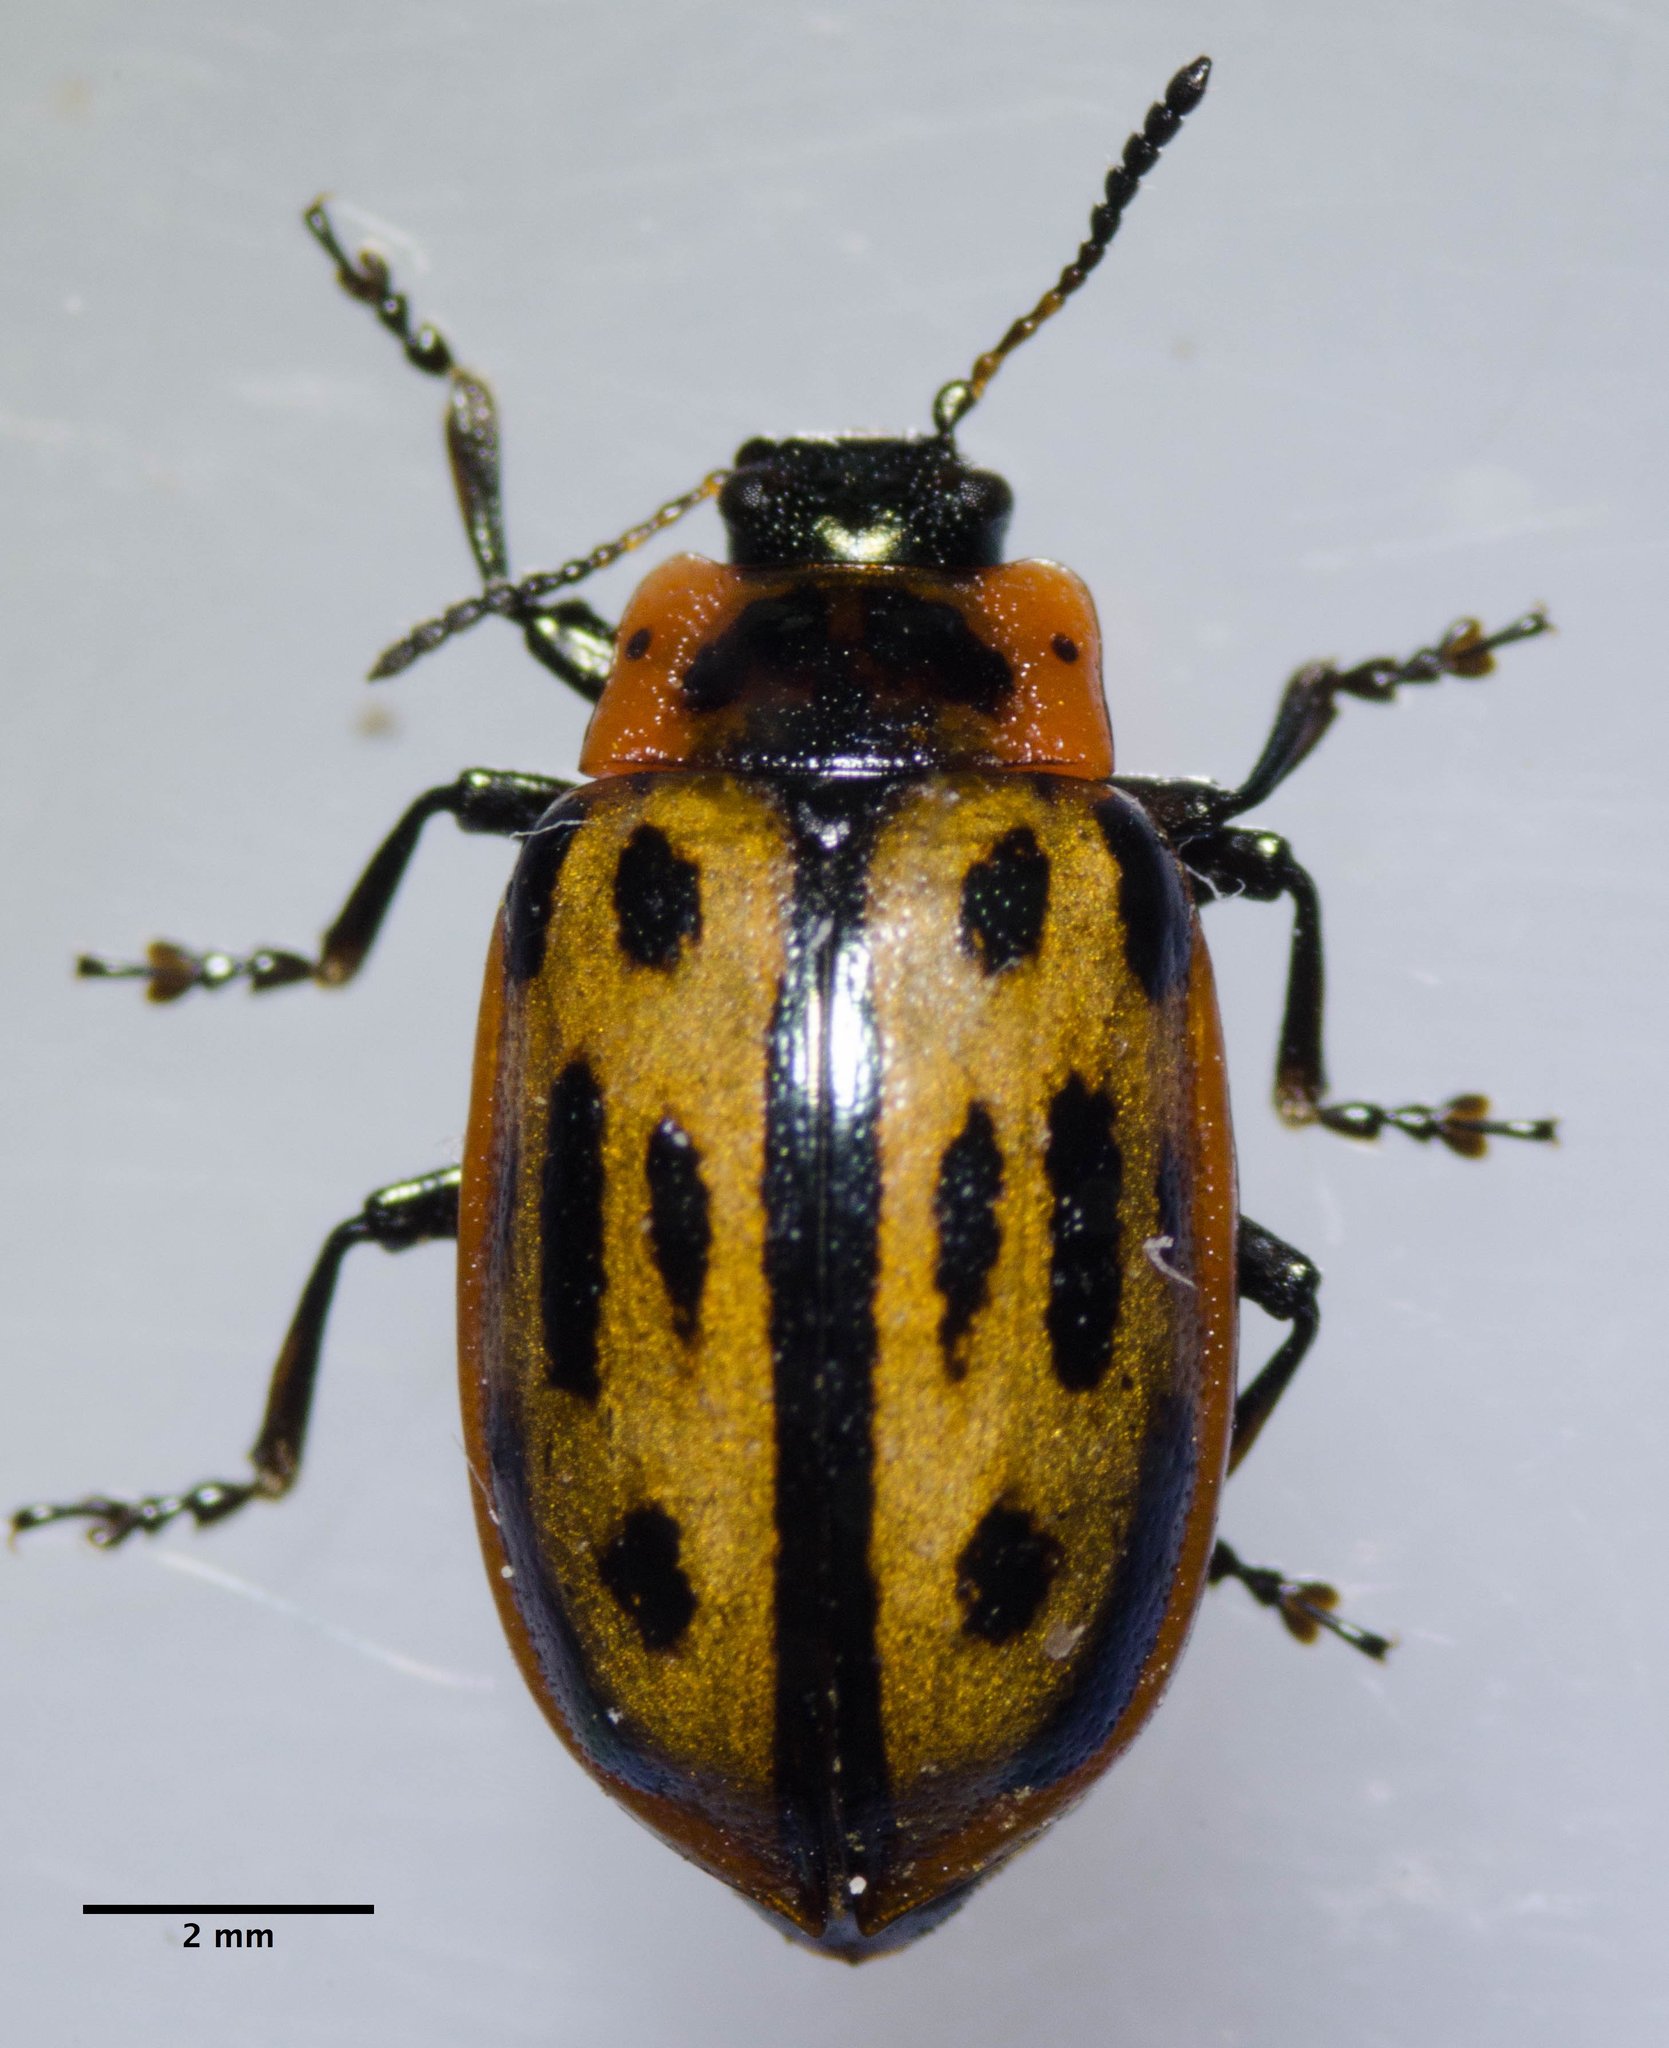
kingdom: Animalia
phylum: Arthropoda
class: Insecta
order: Coleoptera
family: Chrysomelidae
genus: Chrysomela
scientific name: Chrysomela confluens
